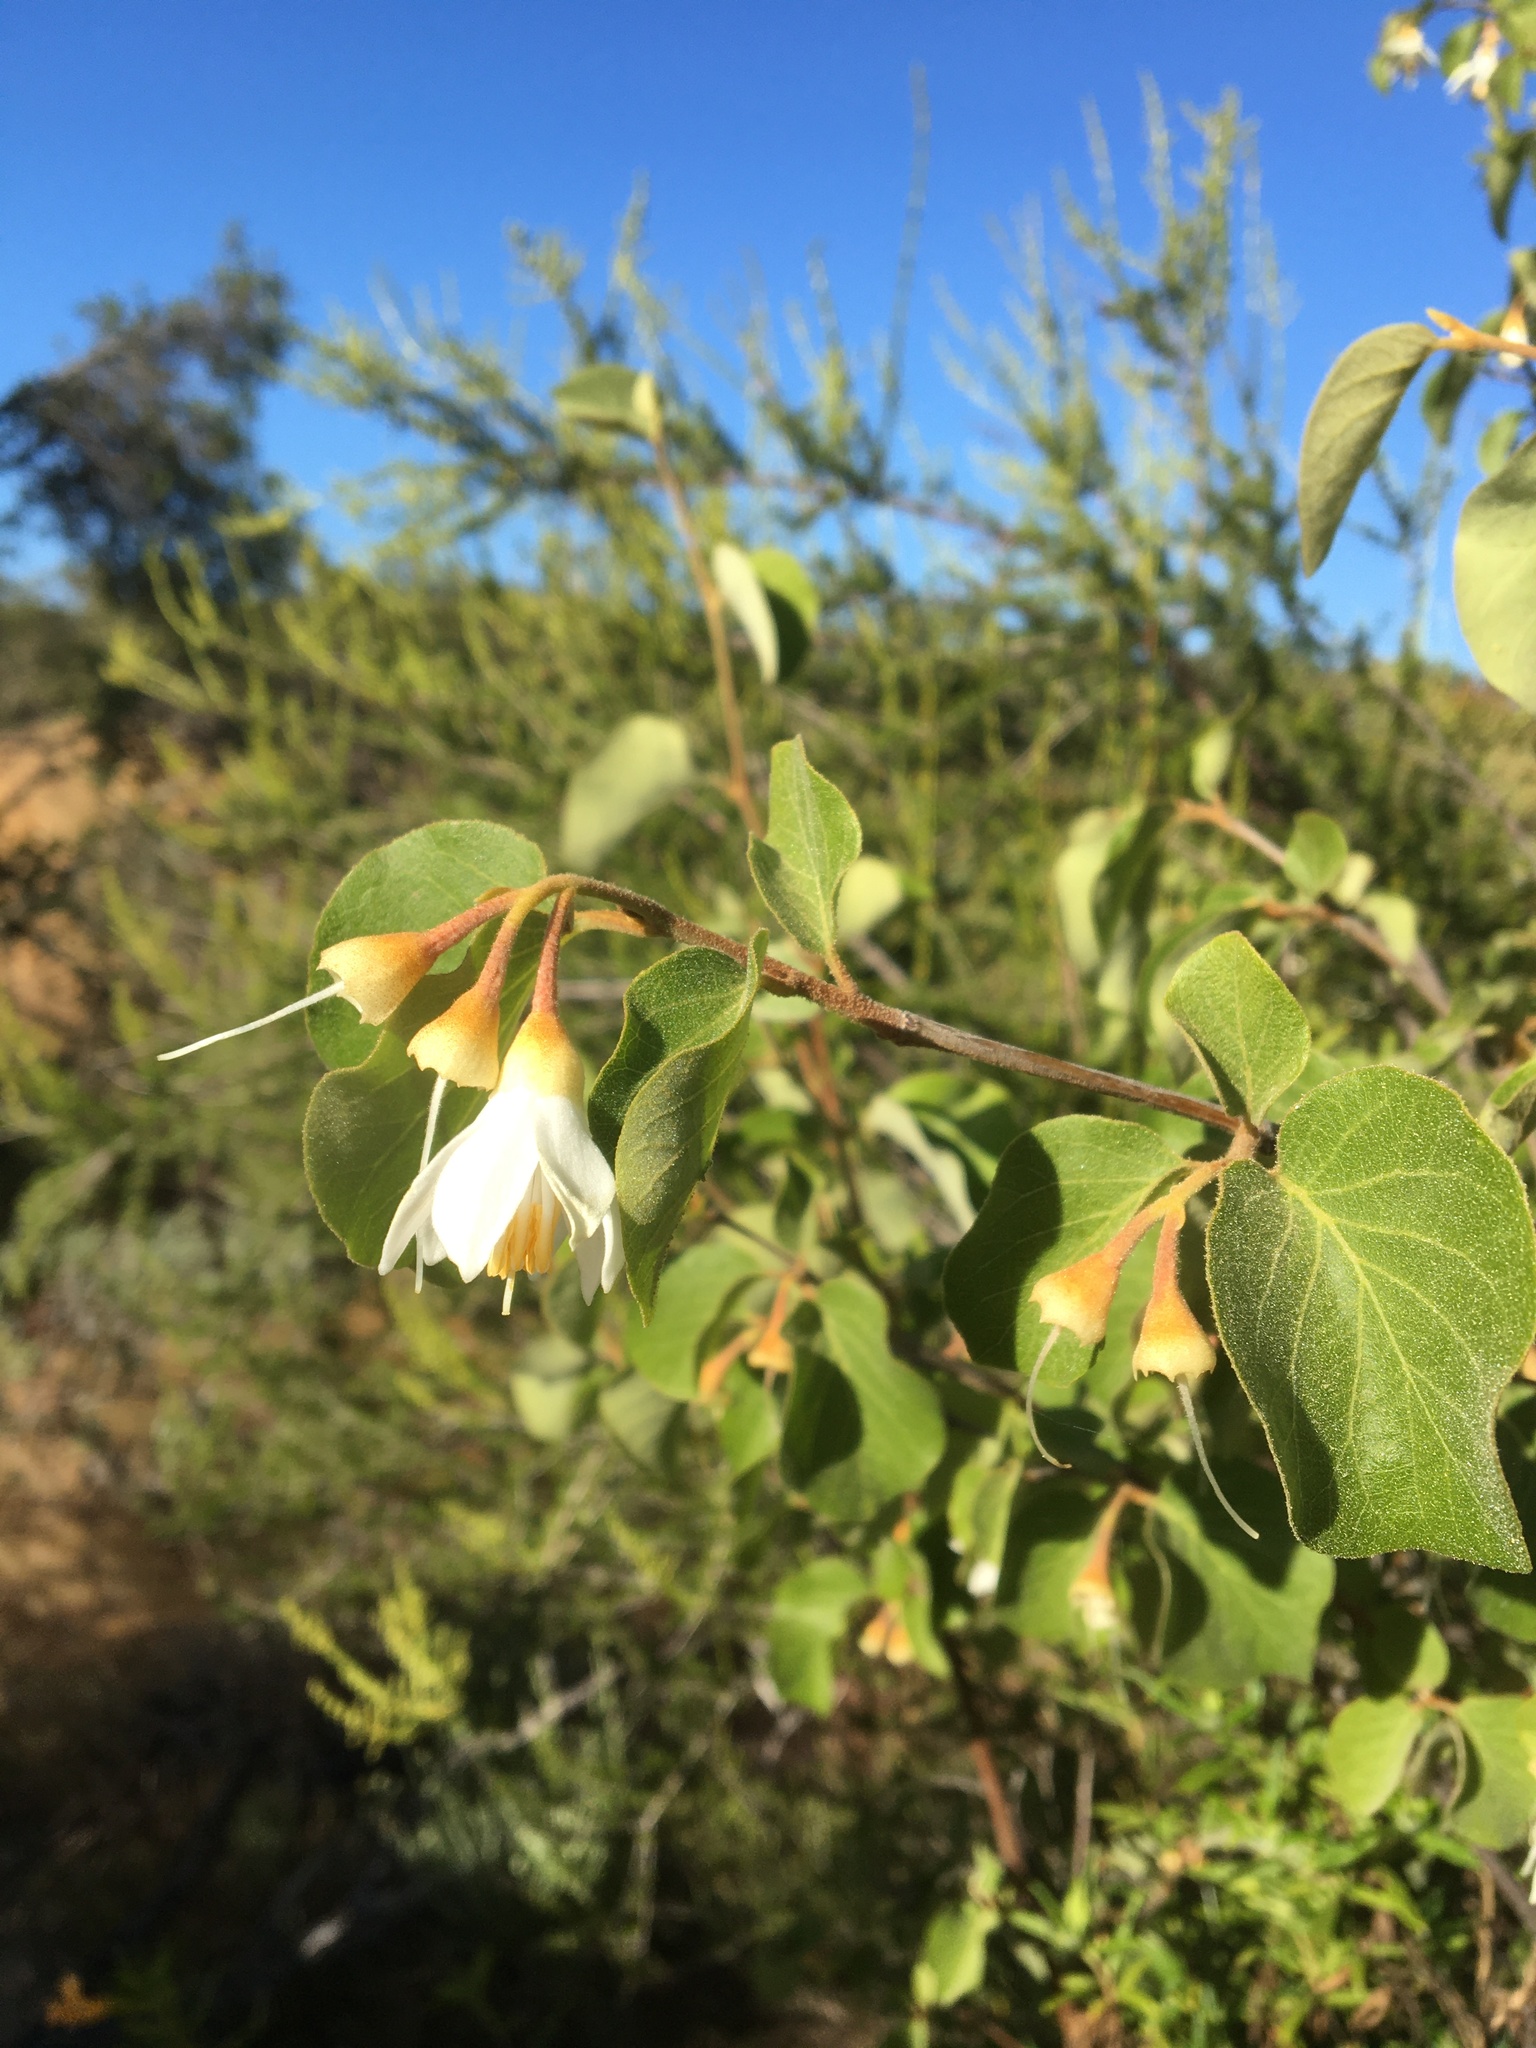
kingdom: Plantae
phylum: Tracheophyta
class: Magnoliopsida
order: Ericales
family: Styracaceae
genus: Styrax
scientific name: Styrax redivivus
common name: California styrax
